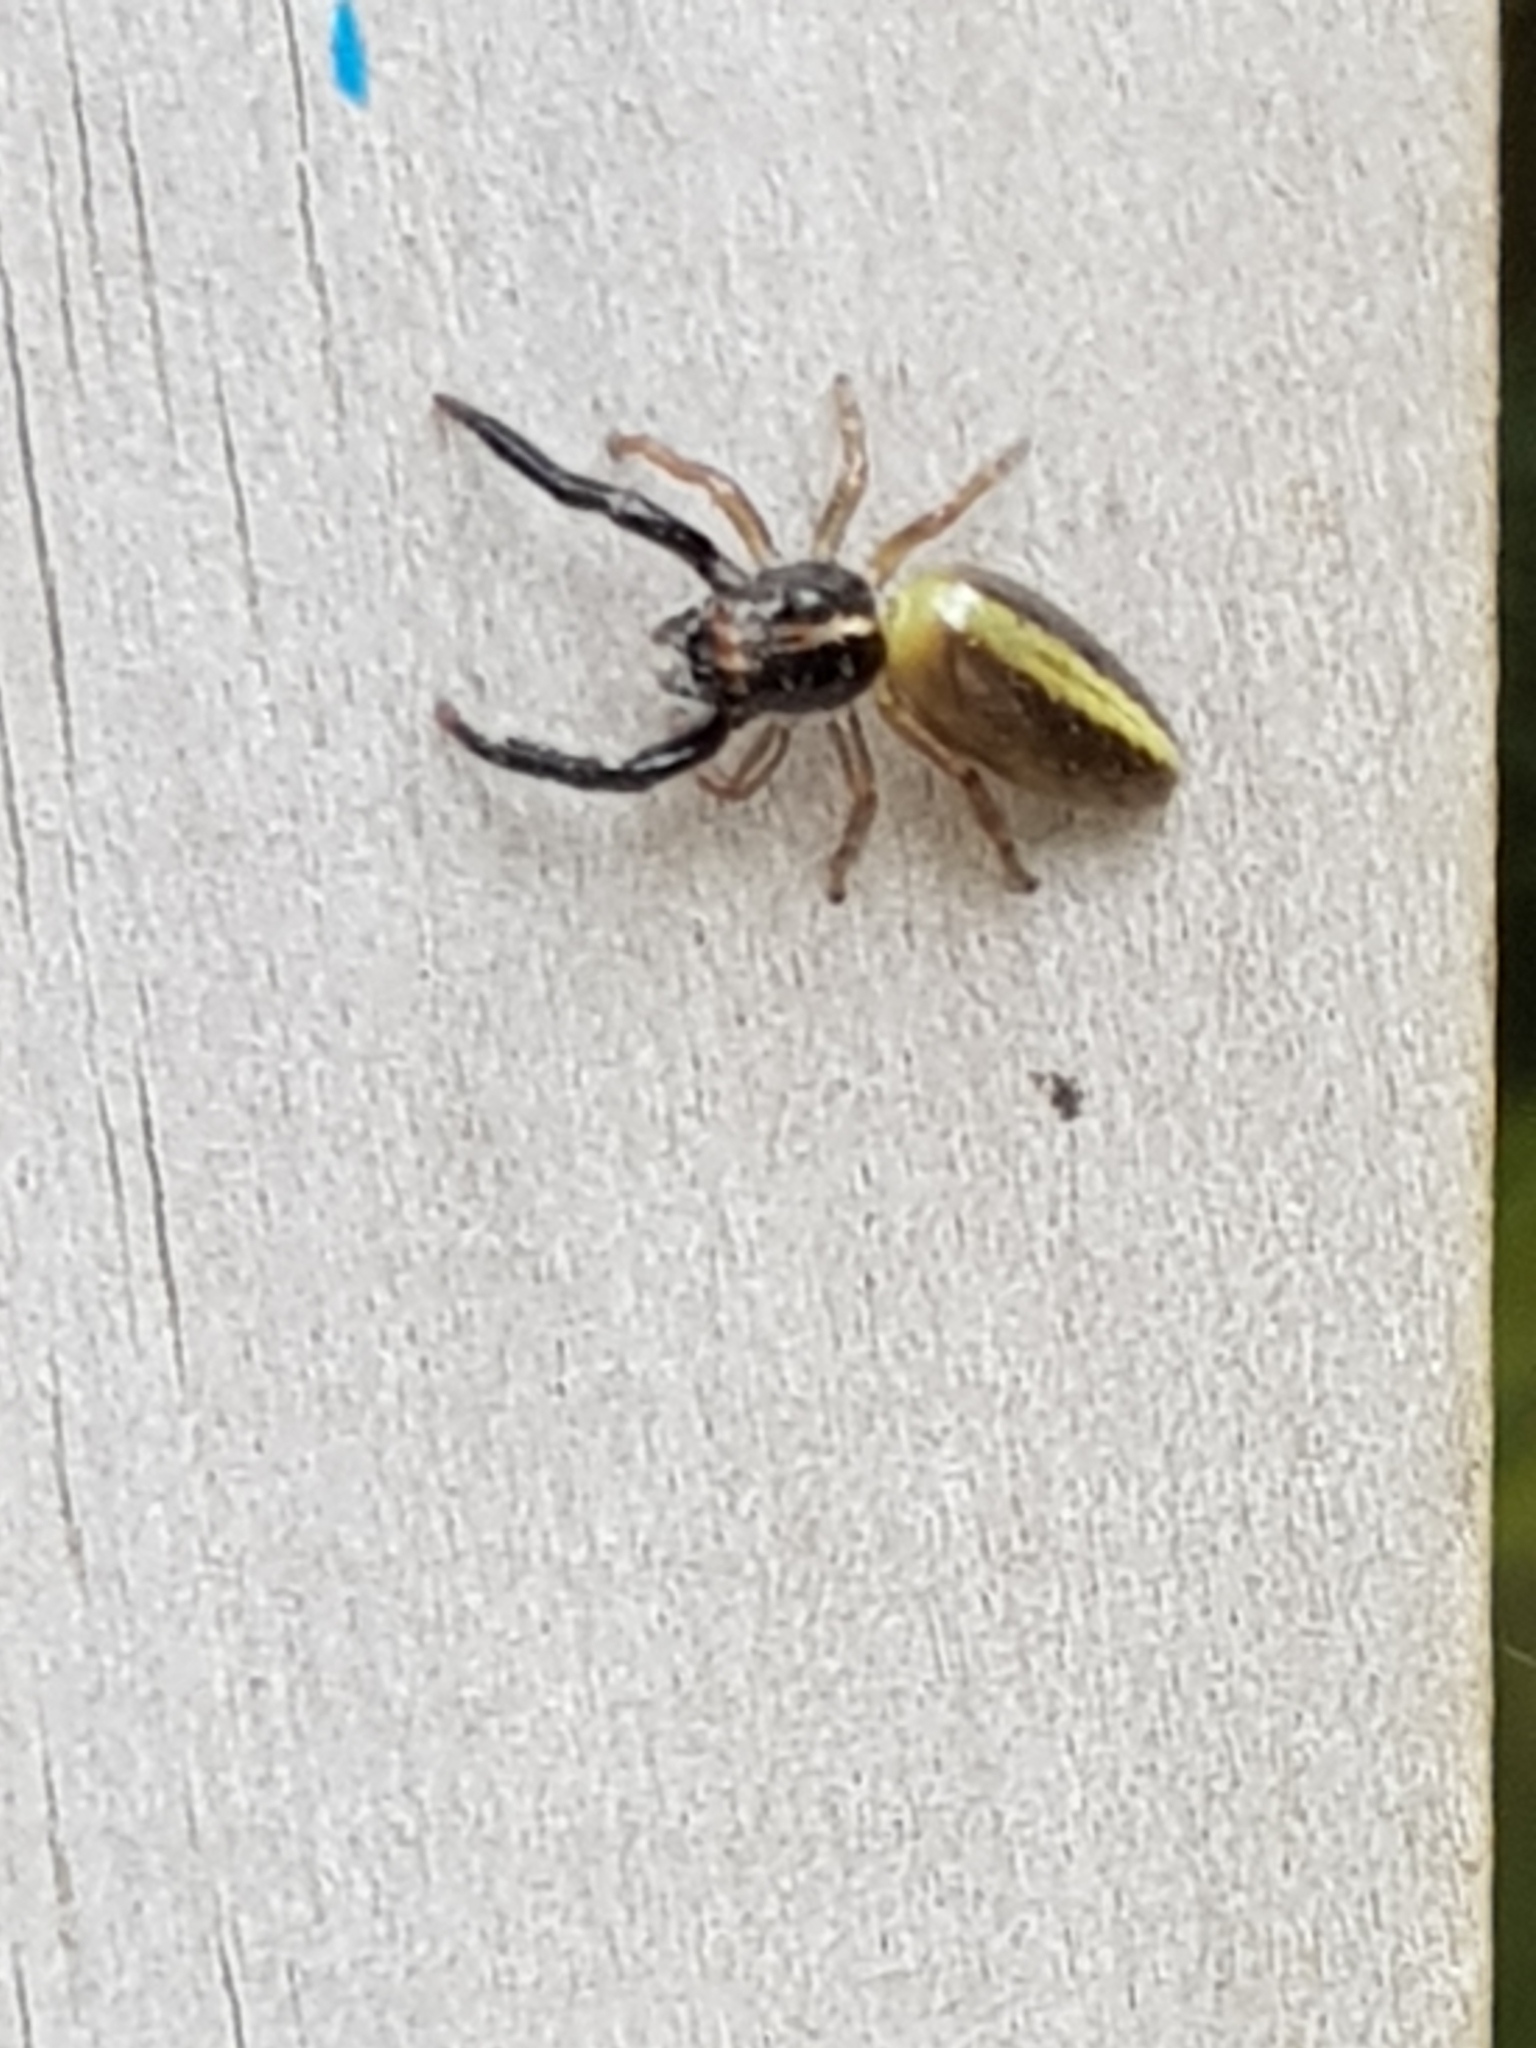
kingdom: Animalia
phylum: Arthropoda
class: Arachnida
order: Araneae
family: Salticidae
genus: Trite
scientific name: Trite planiceps
